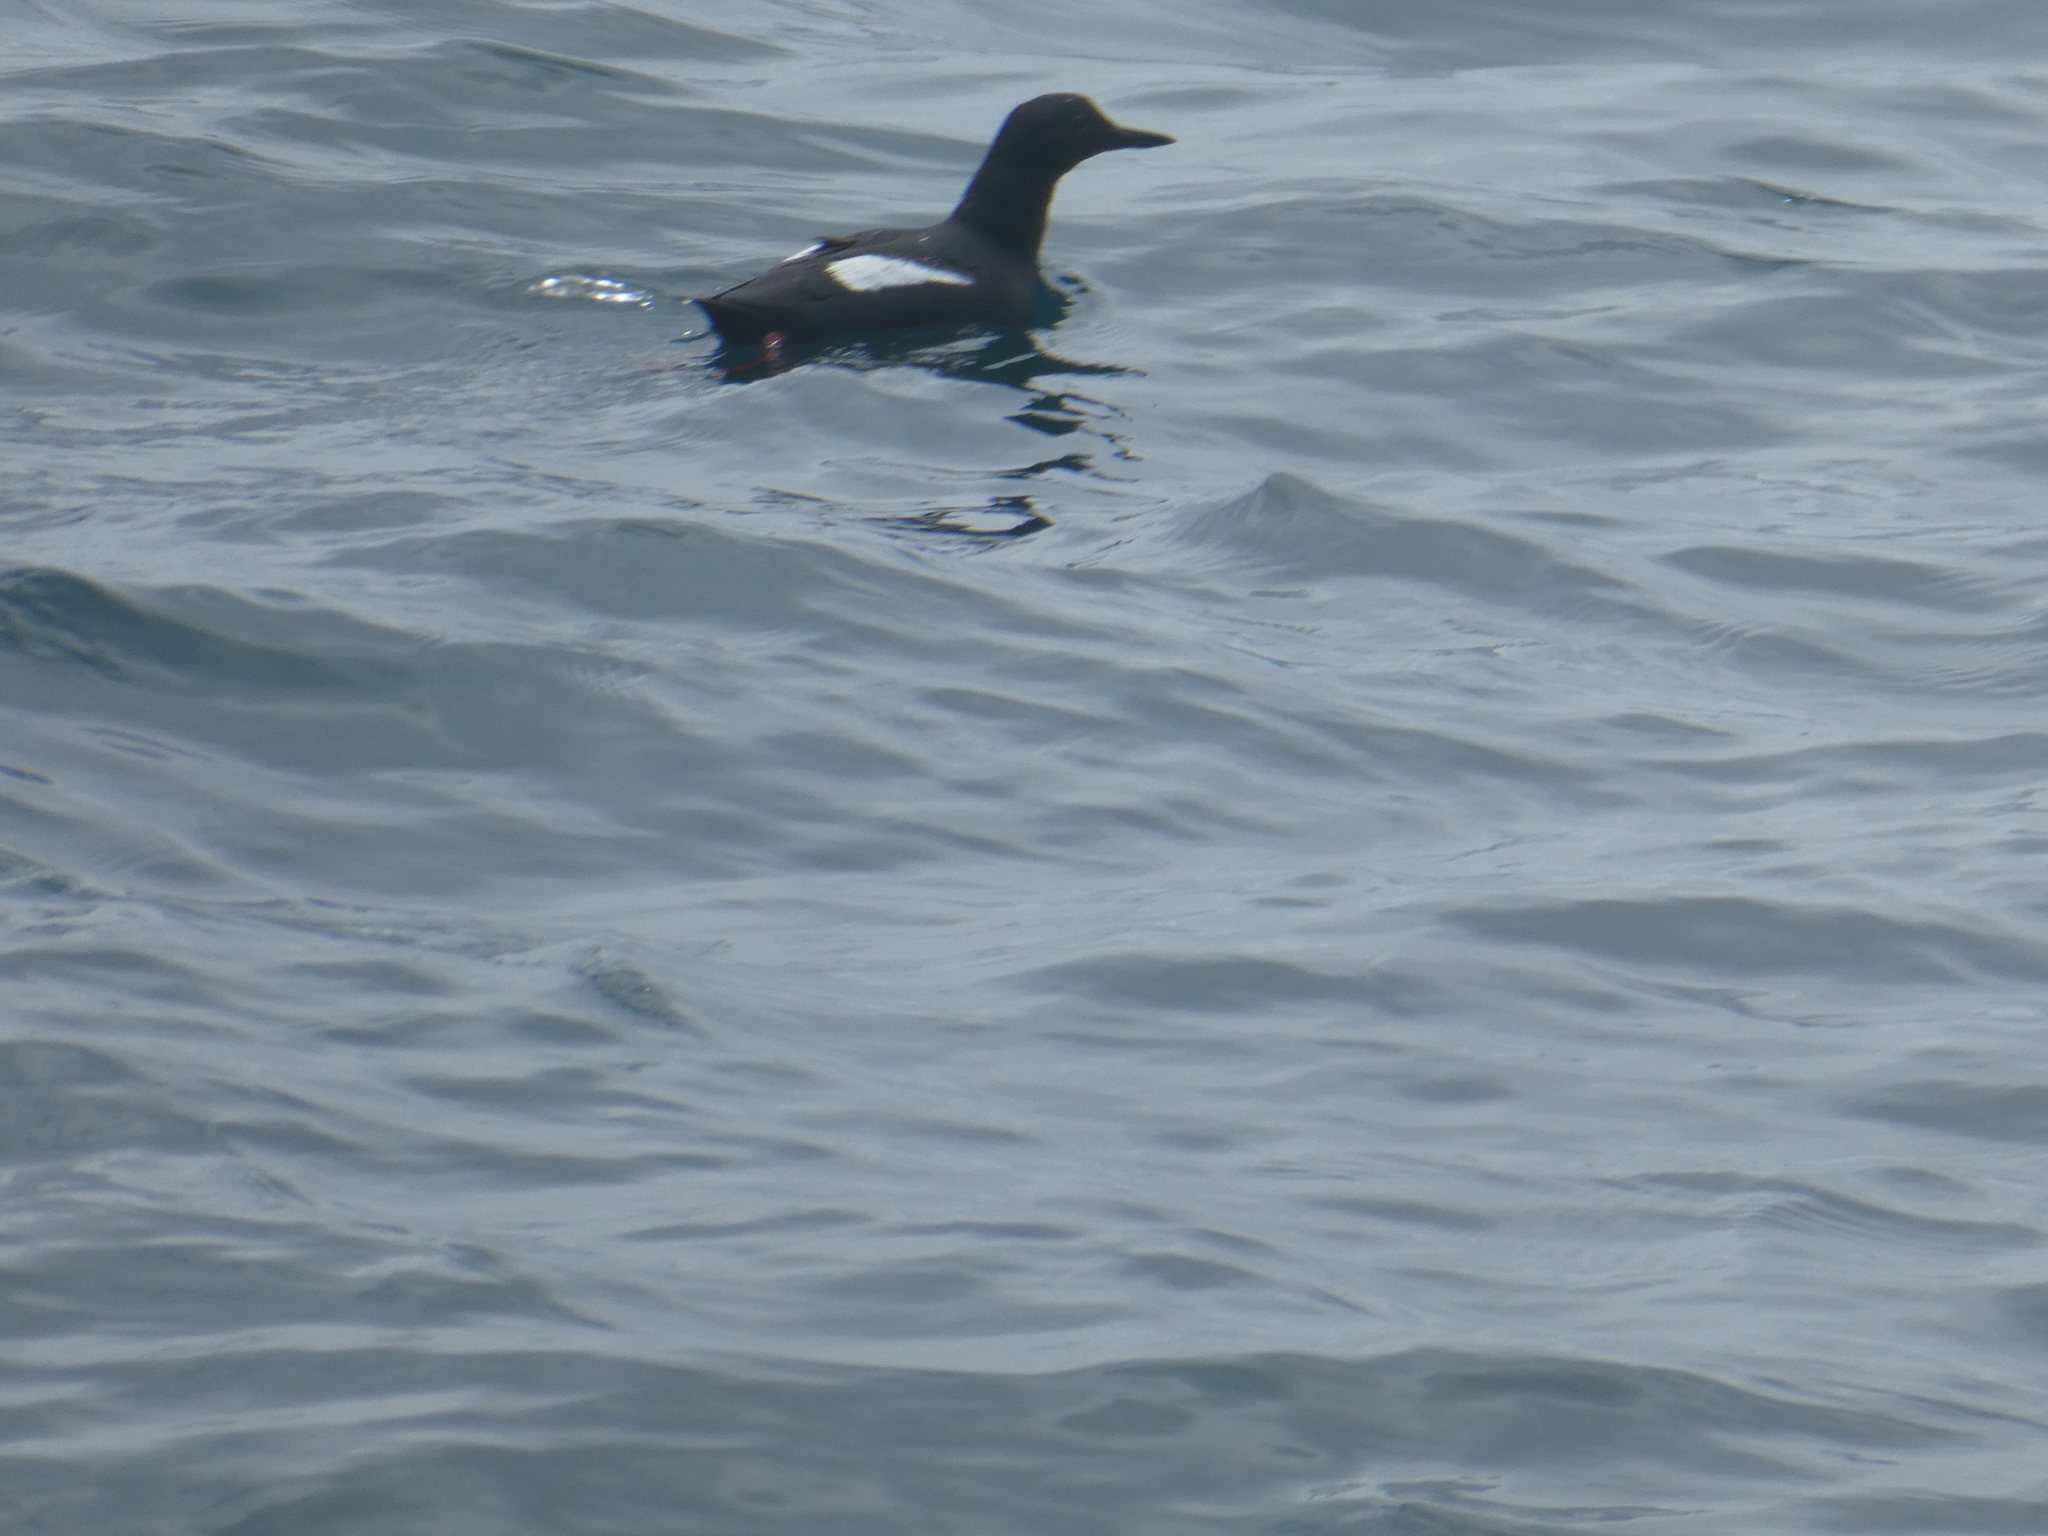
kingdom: Animalia
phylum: Chordata
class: Aves
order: Charadriiformes
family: Alcidae
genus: Cepphus
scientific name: Cepphus columba
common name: Pigeon guillemot
